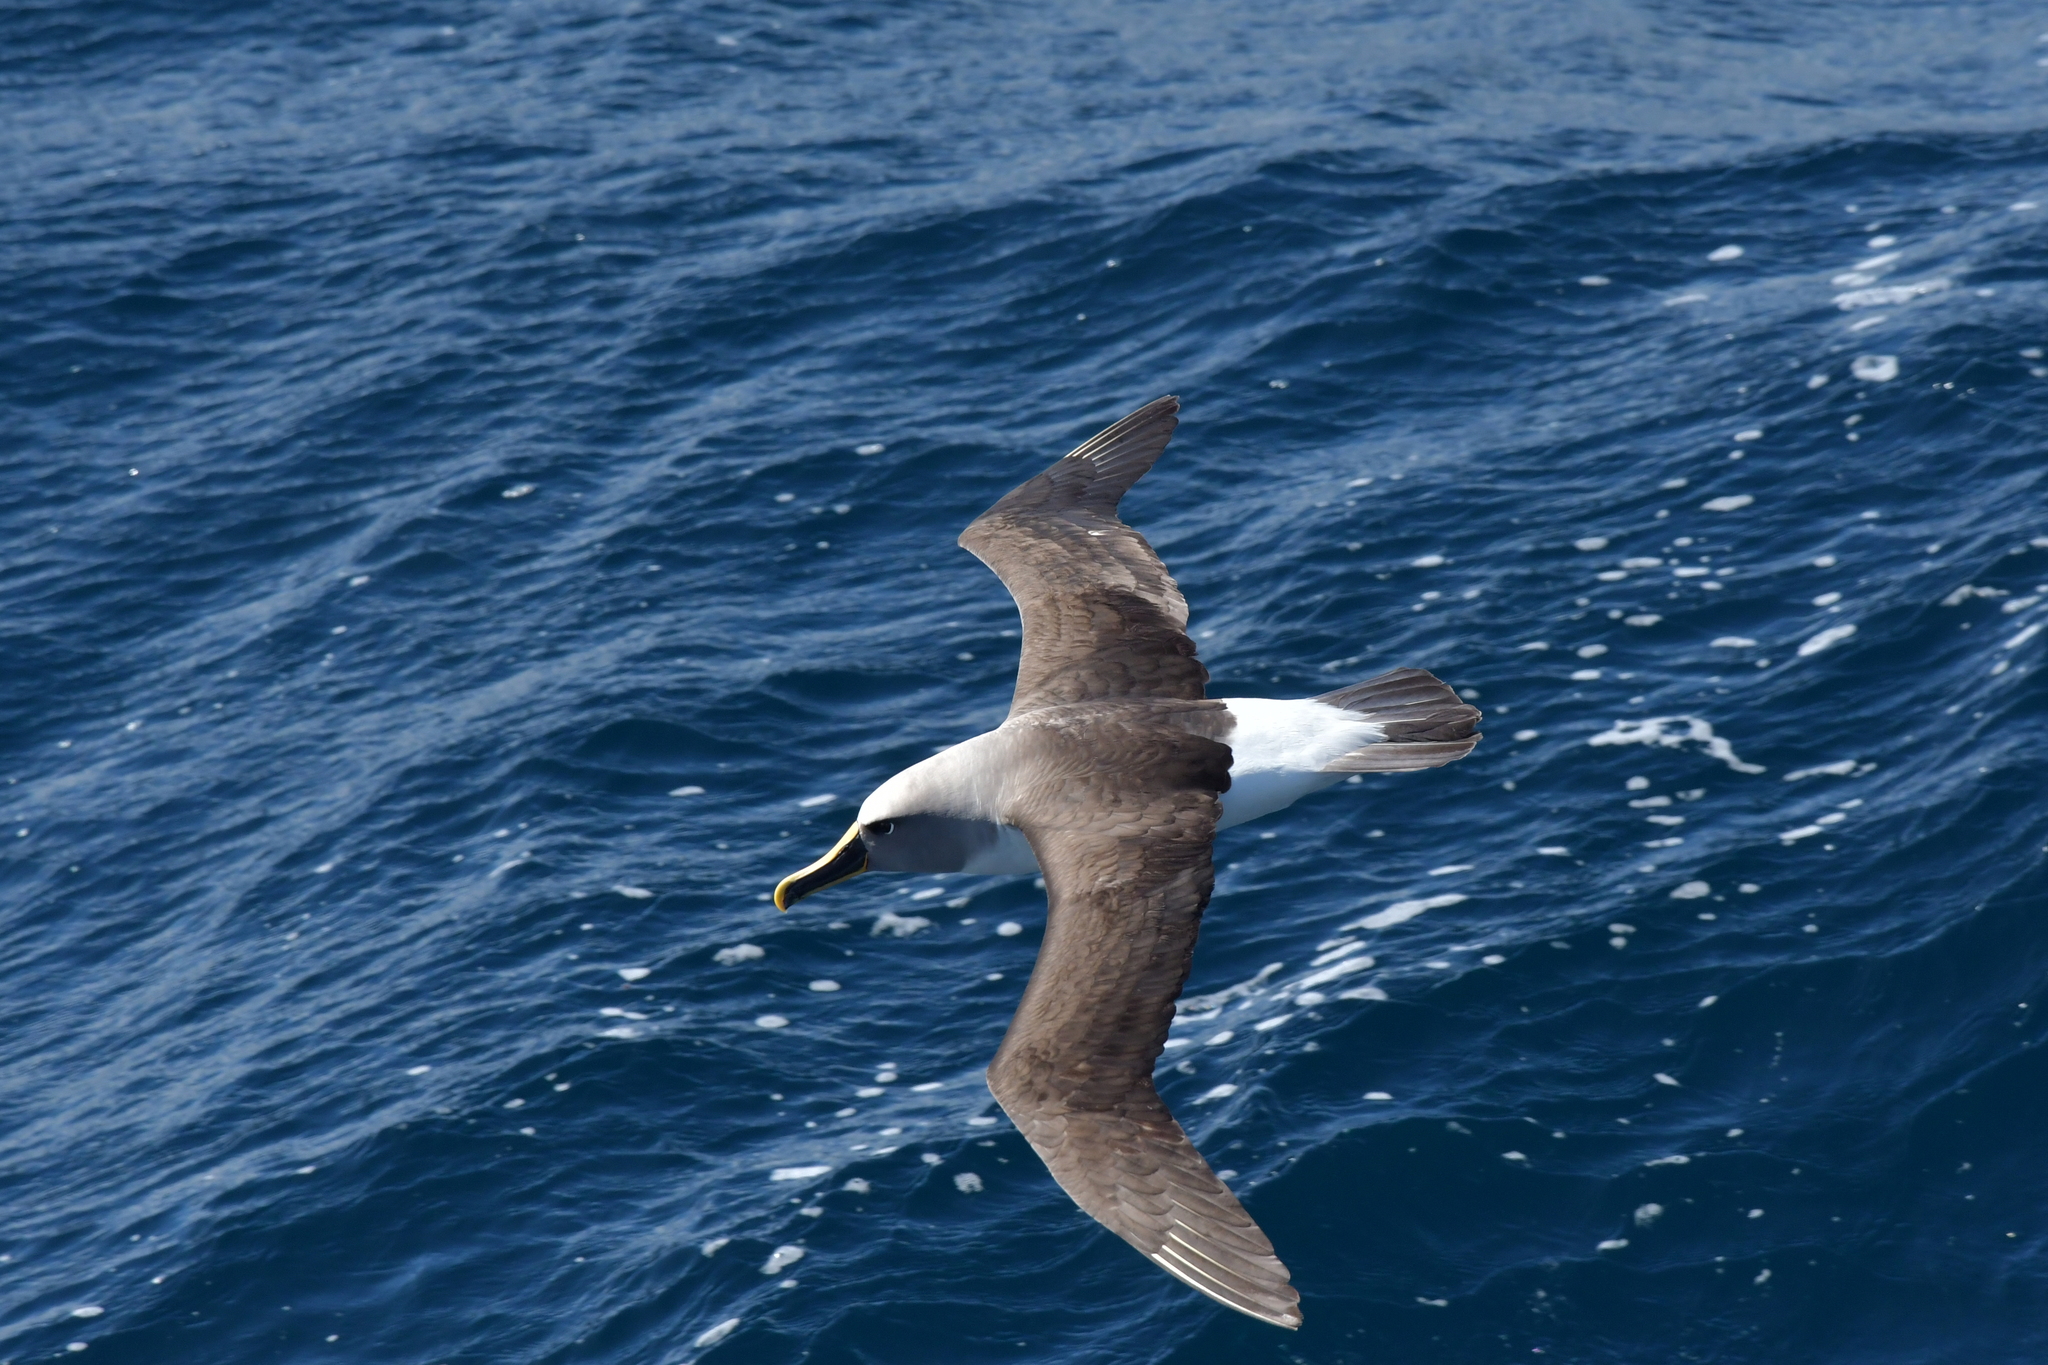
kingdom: Animalia
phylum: Chordata
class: Aves
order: Procellariiformes
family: Diomedeidae
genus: Thalassarche
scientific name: Thalassarche bulleri
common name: Buller's albatross
